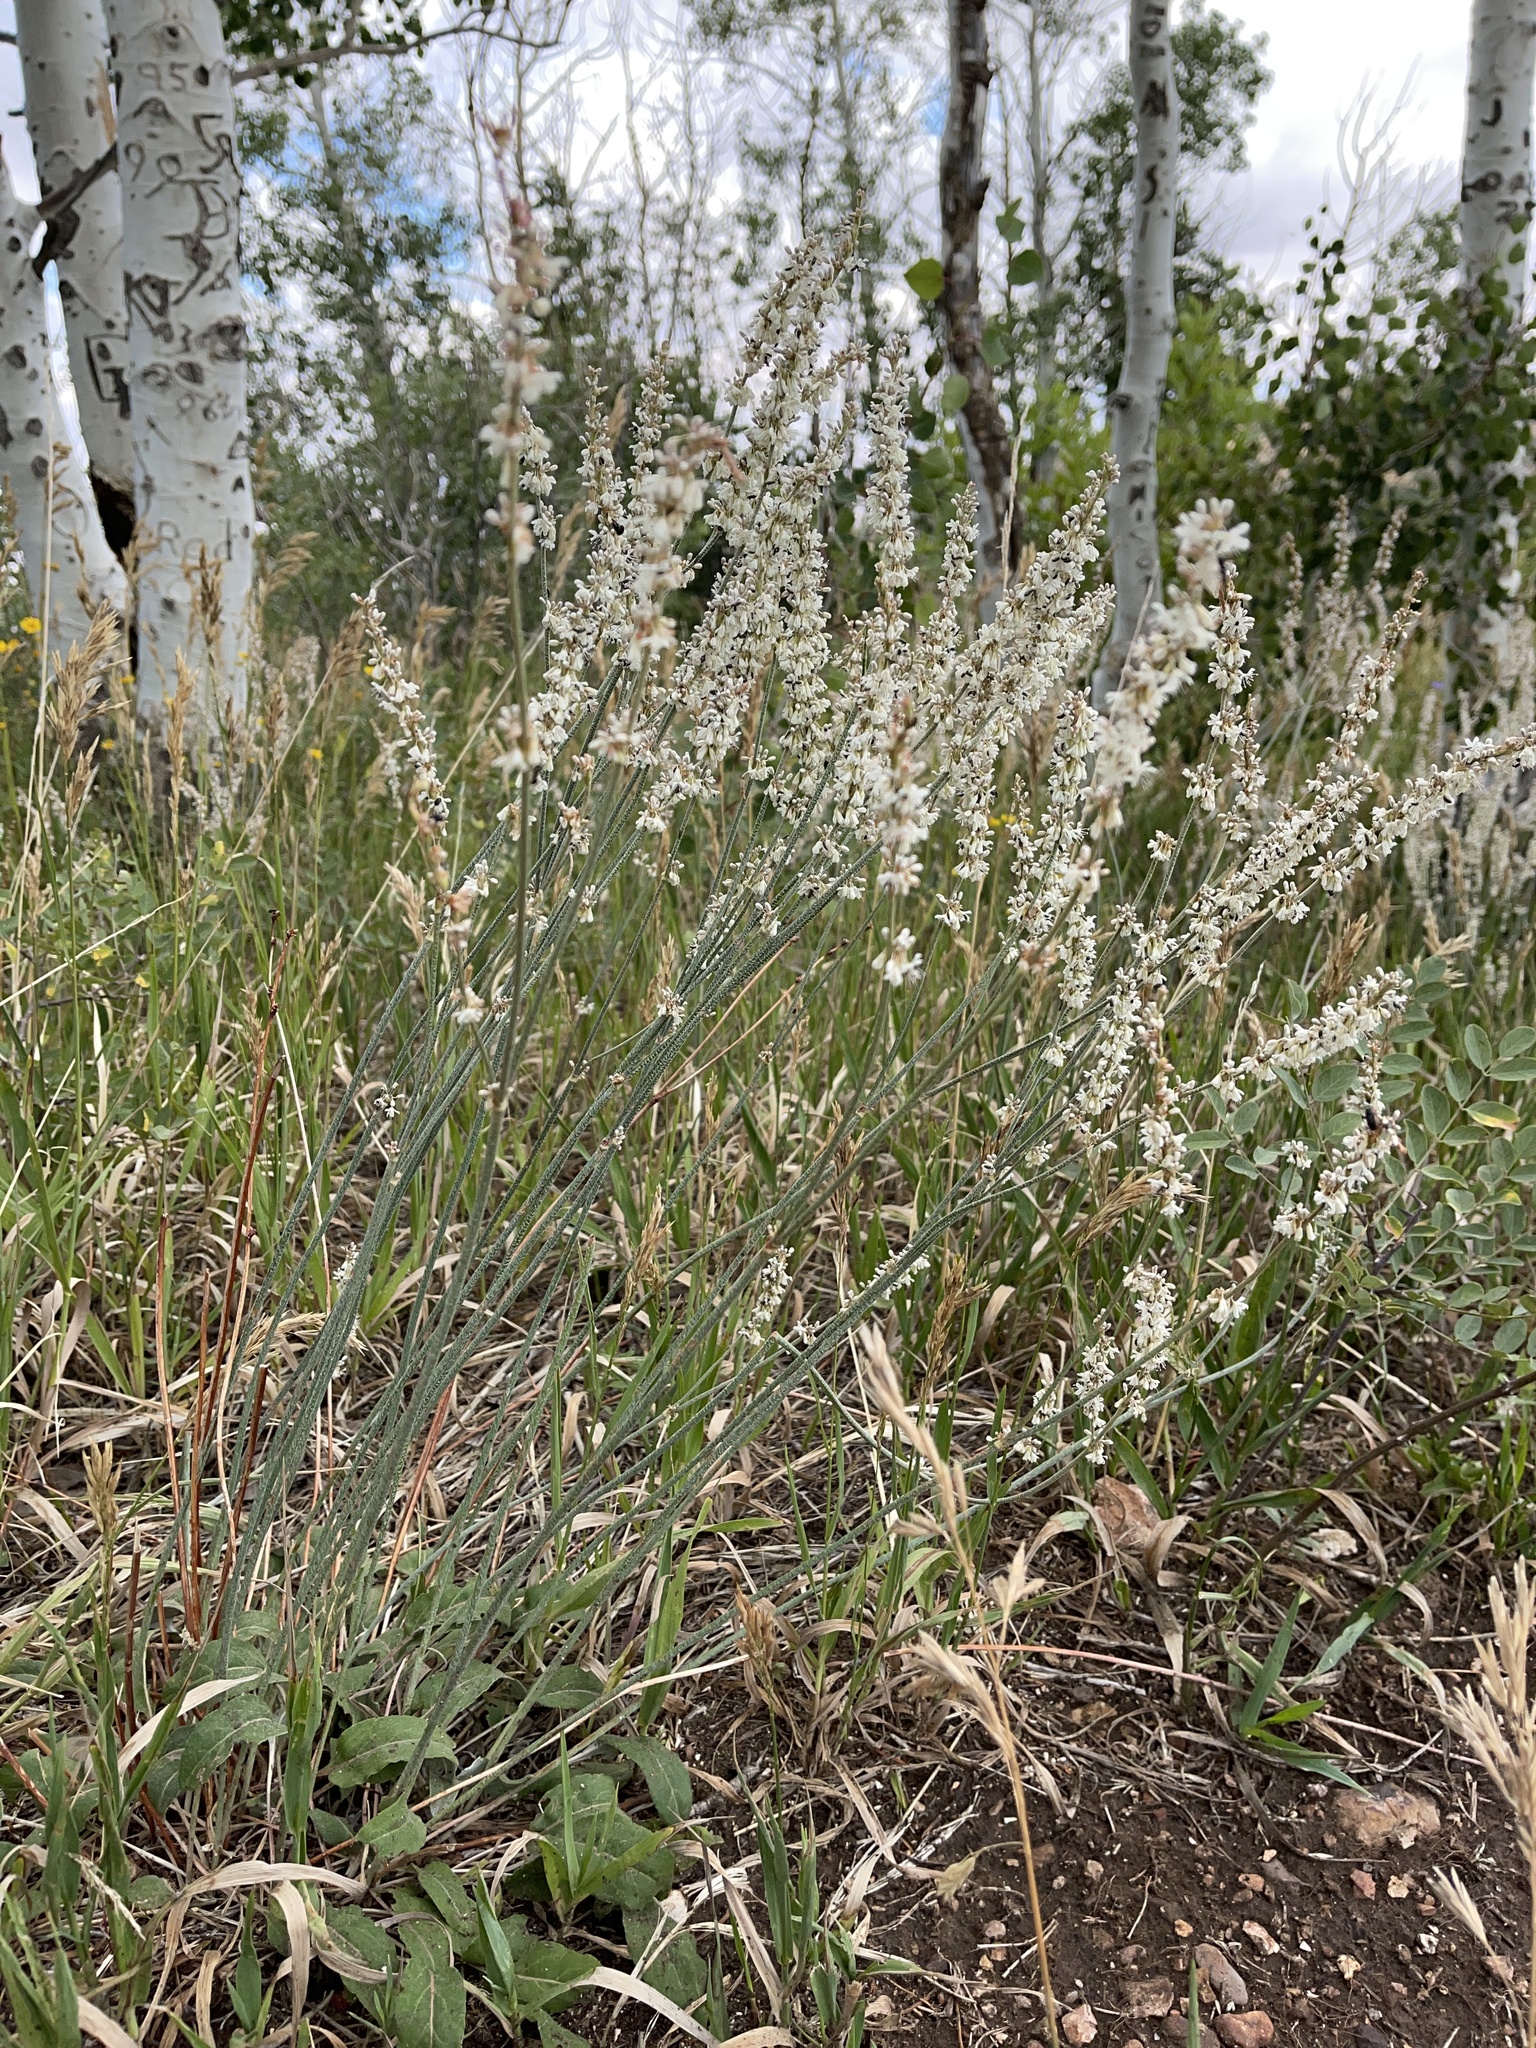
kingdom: Plantae
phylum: Tracheophyta
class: Magnoliopsida
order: Caryophyllales
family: Polygonaceae
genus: Eriogonum
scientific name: Eriogonum racemosum
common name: Redroot wild buckwheat
